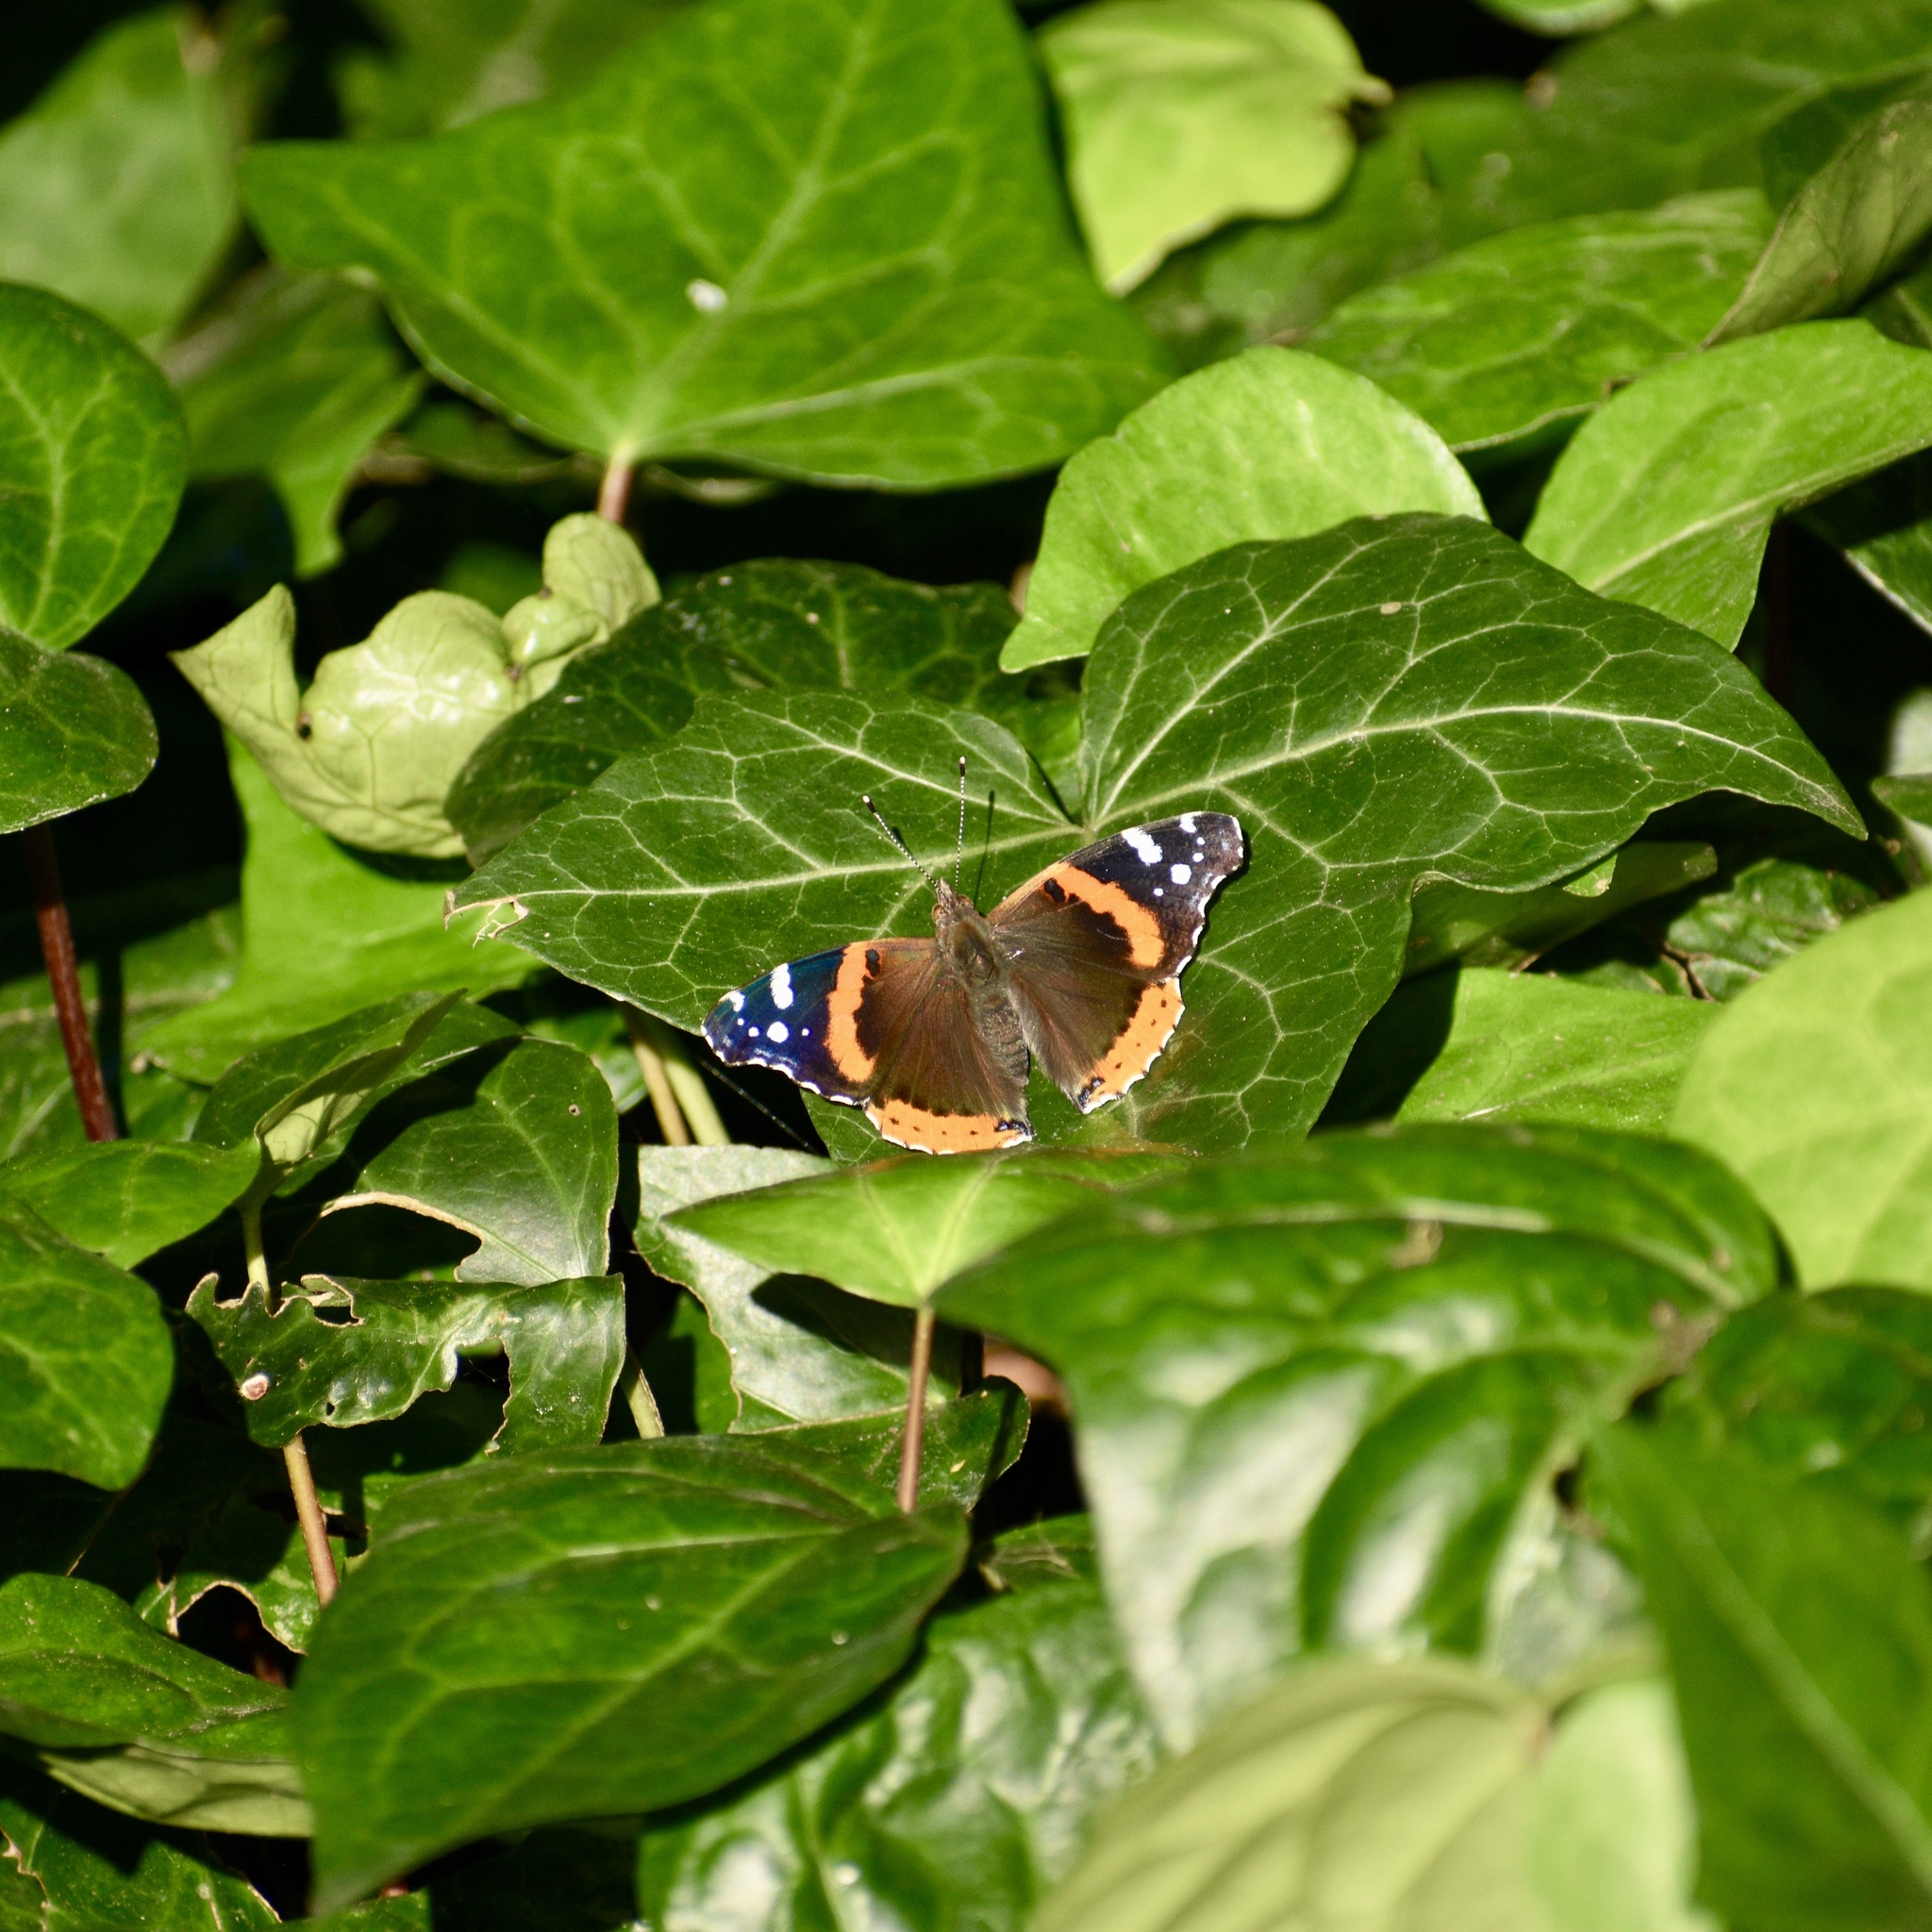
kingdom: Animalia
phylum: Arthropoda
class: Insecta
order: Lepidoptera
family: Nymphalidae
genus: Vanessa
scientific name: Vanessa atalanta
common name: Red admiral
